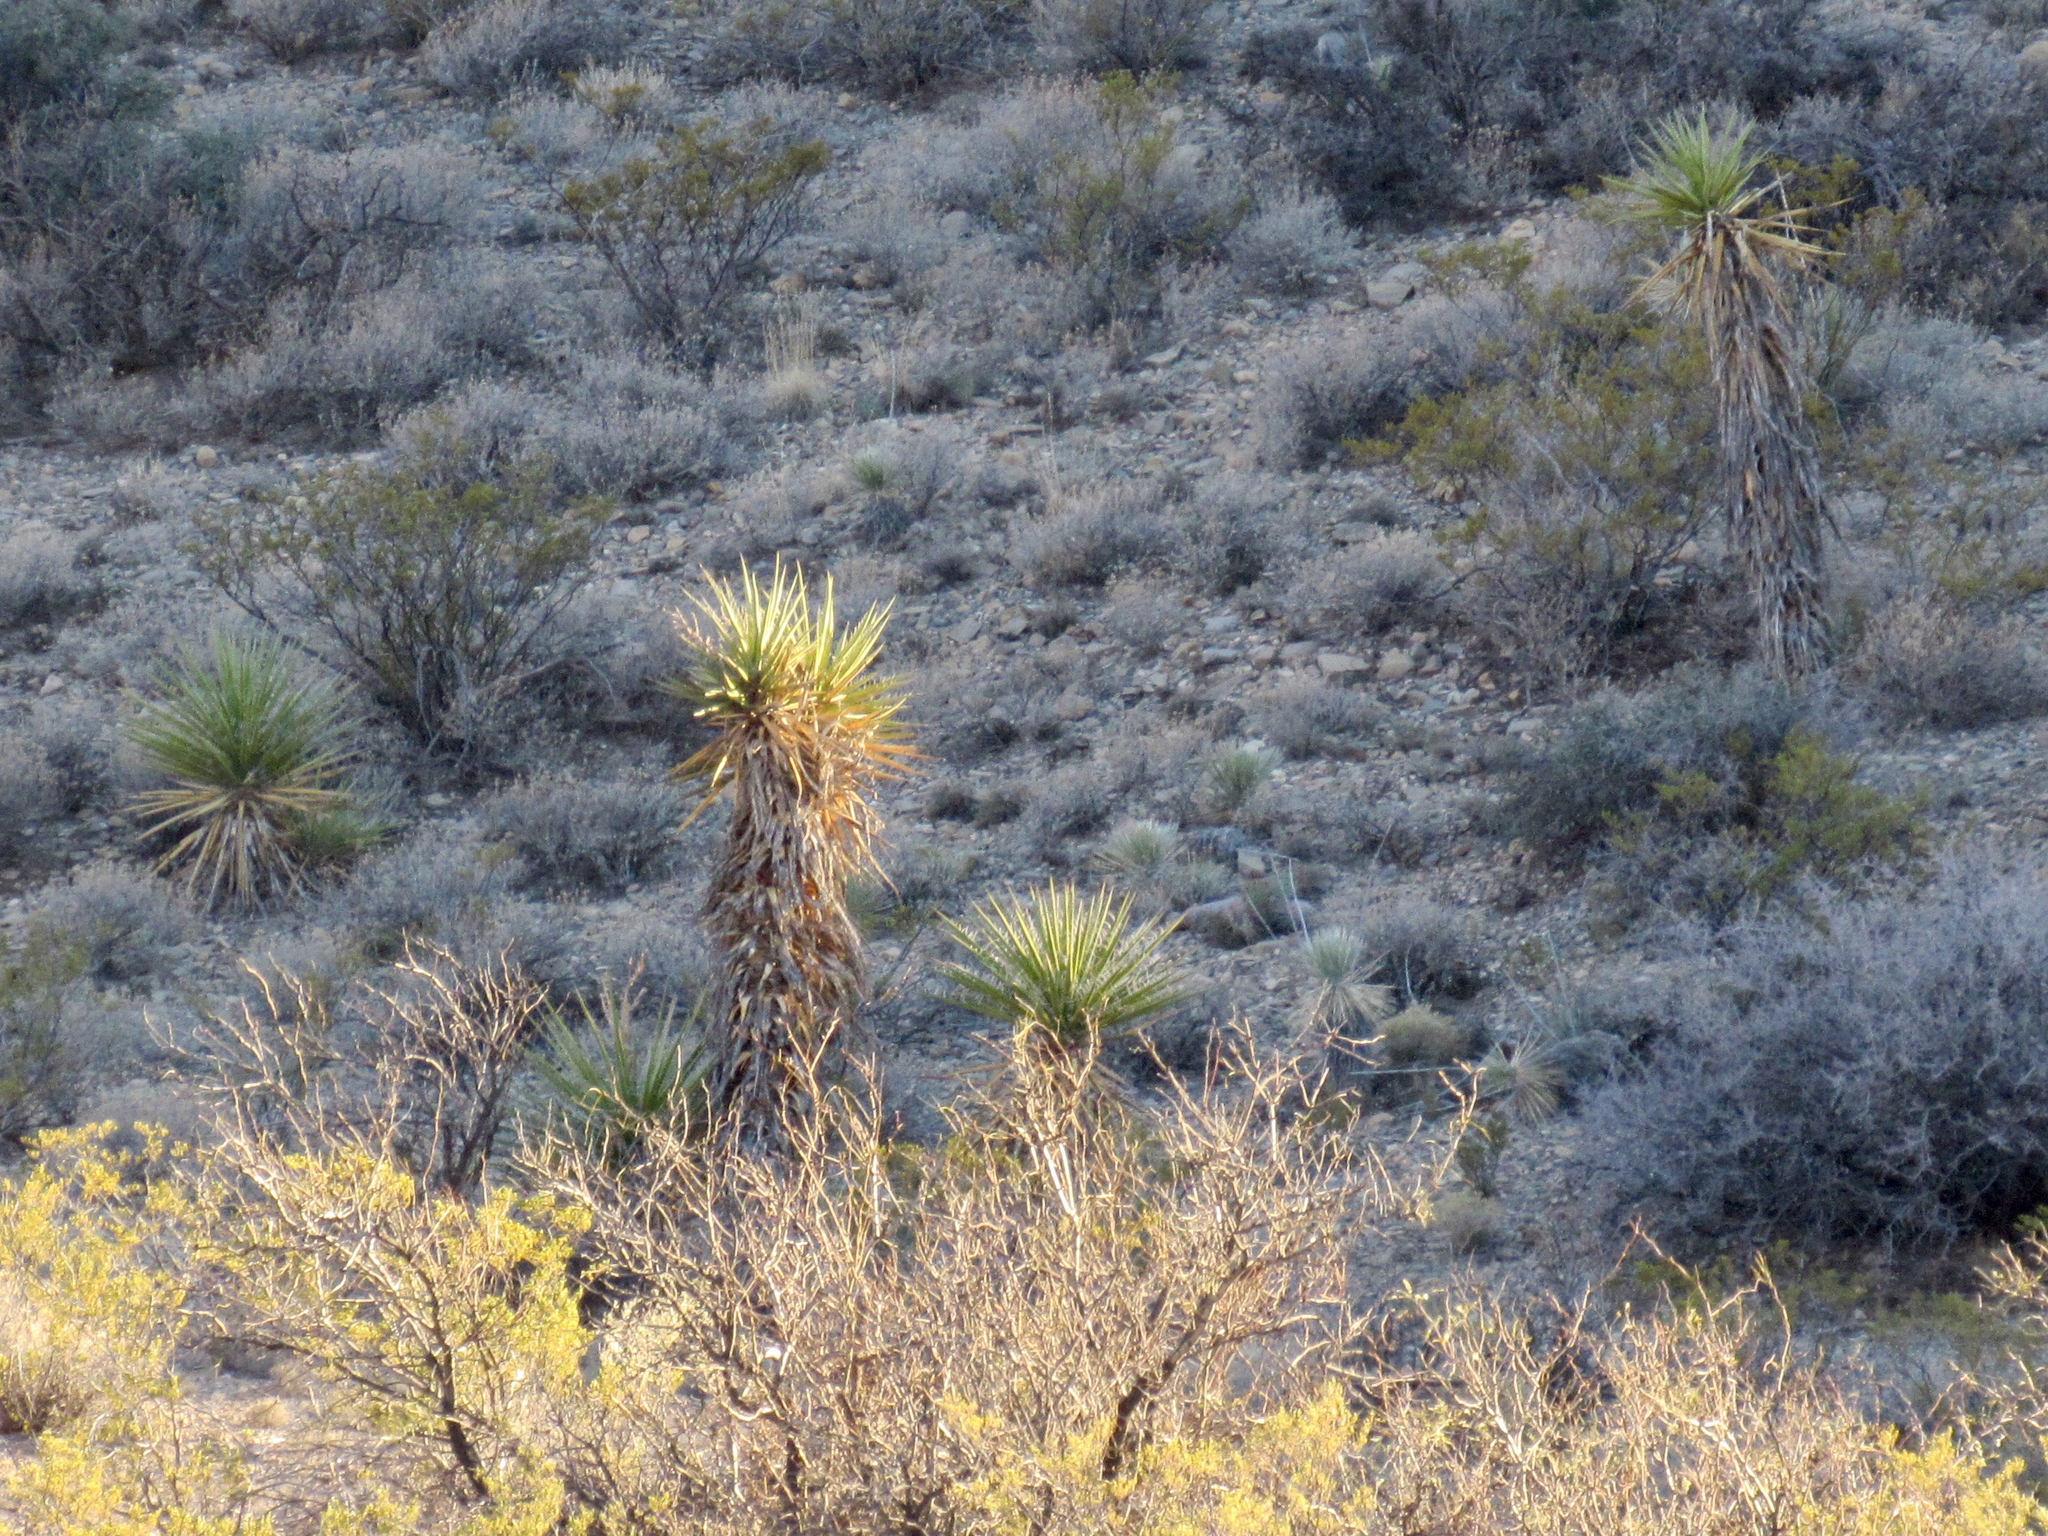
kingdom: Plantae
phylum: Tracheophyta
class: Liliopsida
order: Asparagales
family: Asparagaceae
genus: Yucca
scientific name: Yucca treculiana
